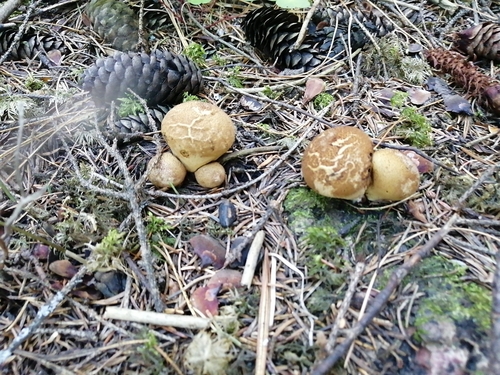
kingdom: Fungi
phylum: Basidiomycota
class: Agaricomycetes
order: Agaricales
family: Lycoperdaceae
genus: Lycoperdon
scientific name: Lycoperdon
